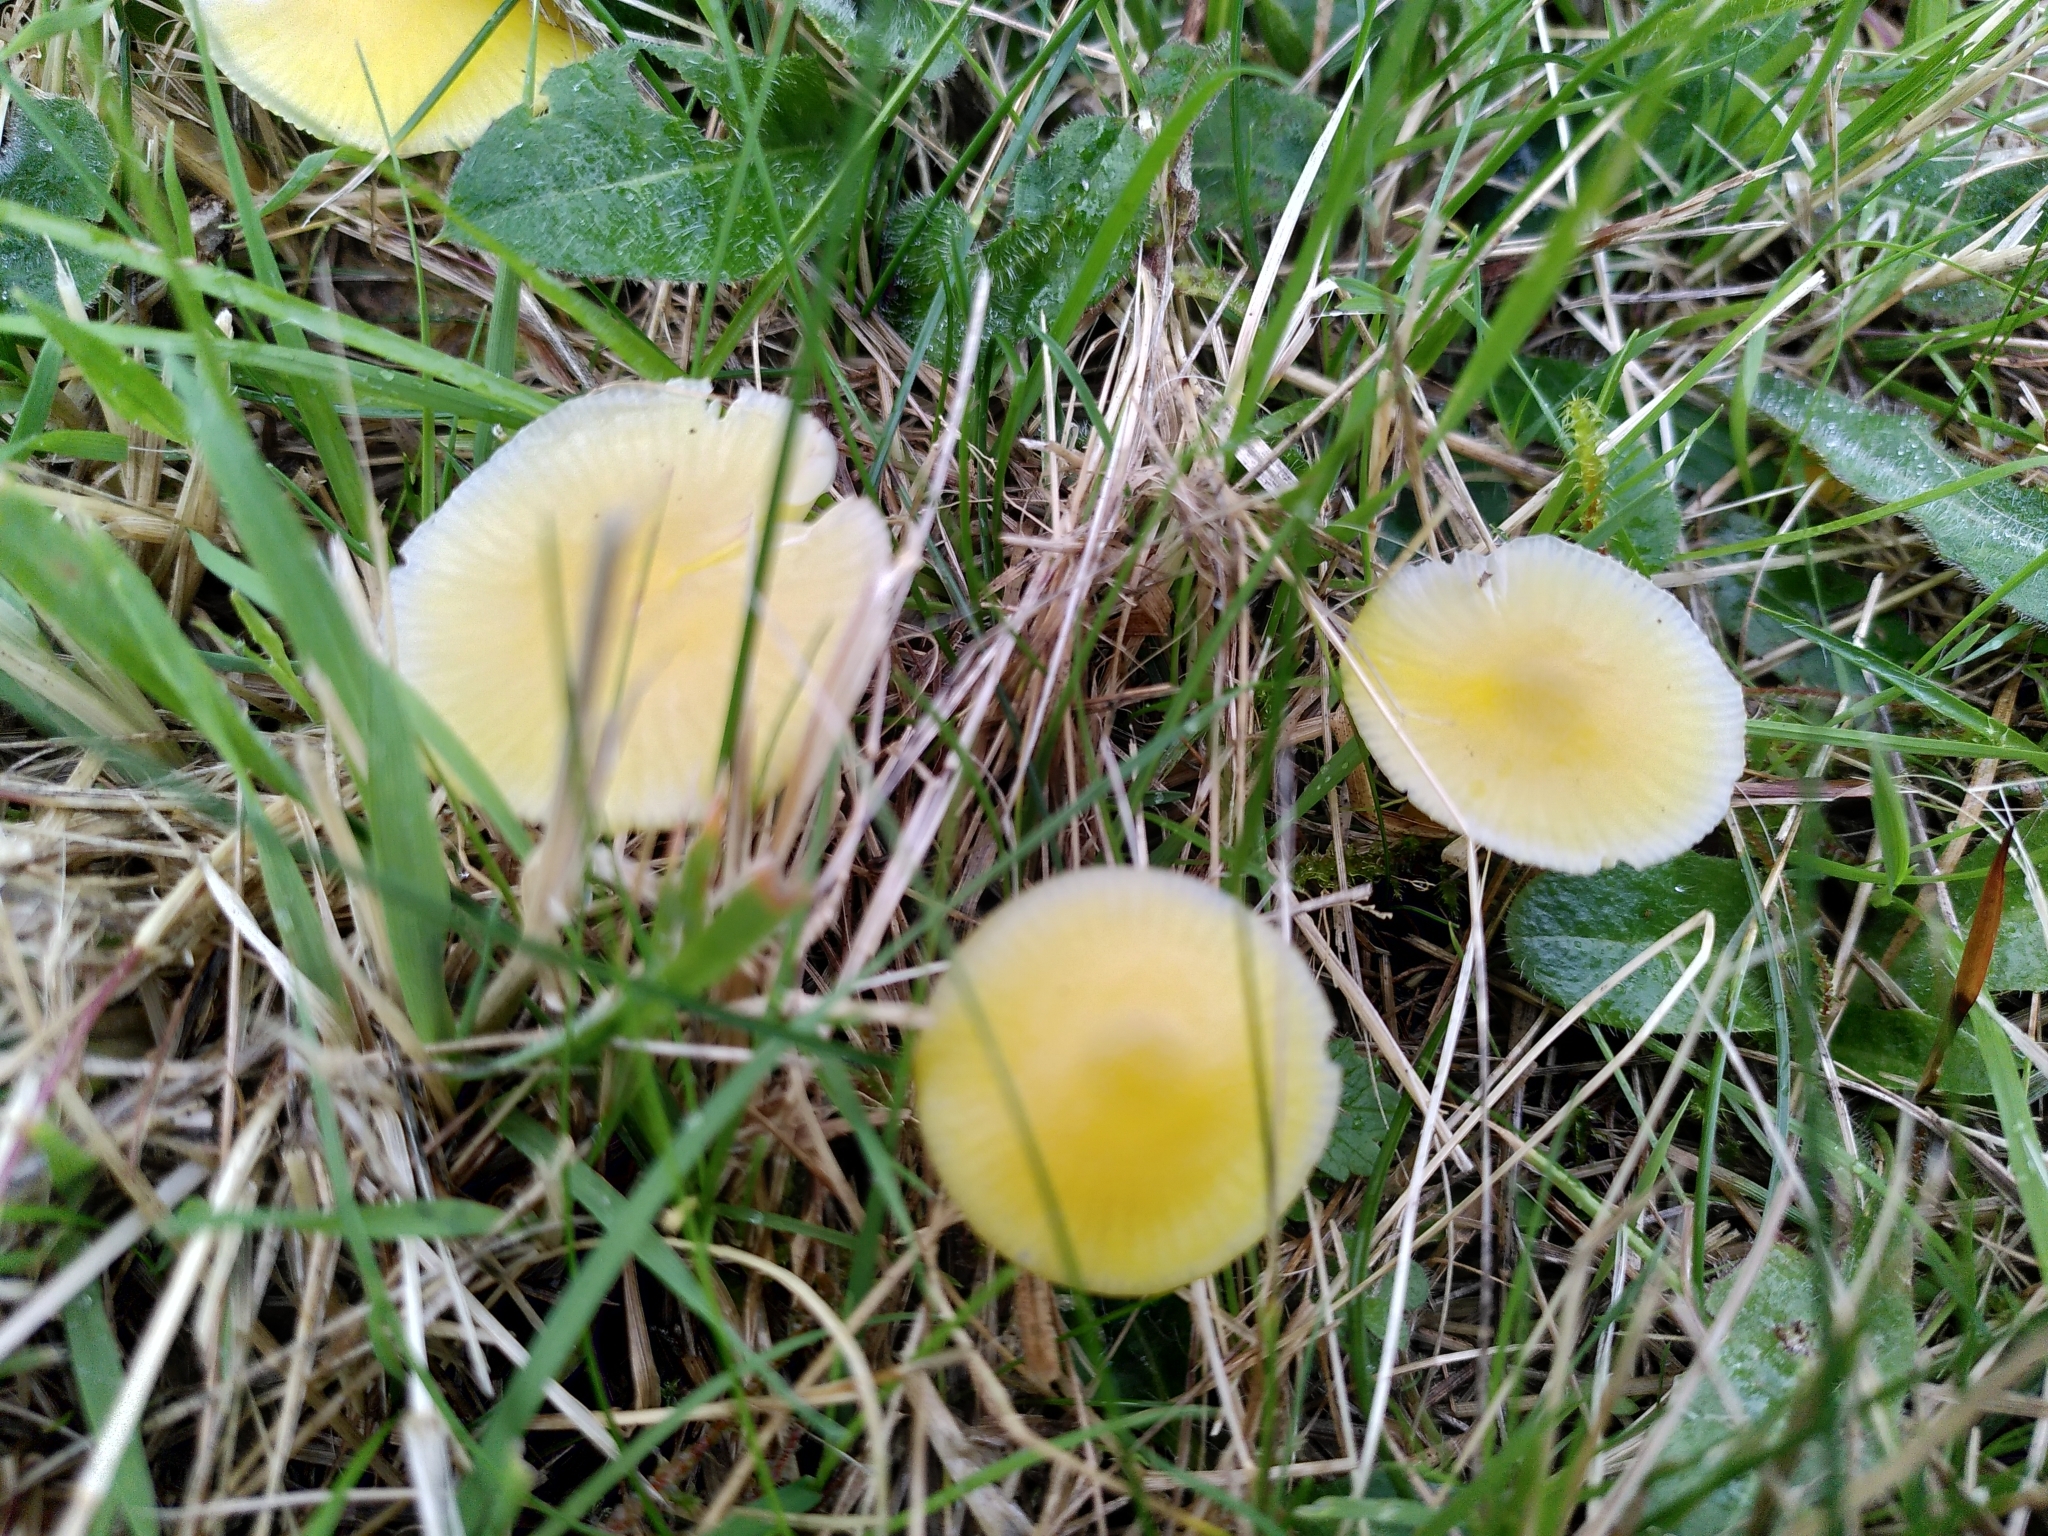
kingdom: Fungi
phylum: Basidiomycota
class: Agaricomycetes
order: Agaricales
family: Hygrophoraceae
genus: Hygrocybe
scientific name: Hygrocybe ceracea
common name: Butter waxcap
